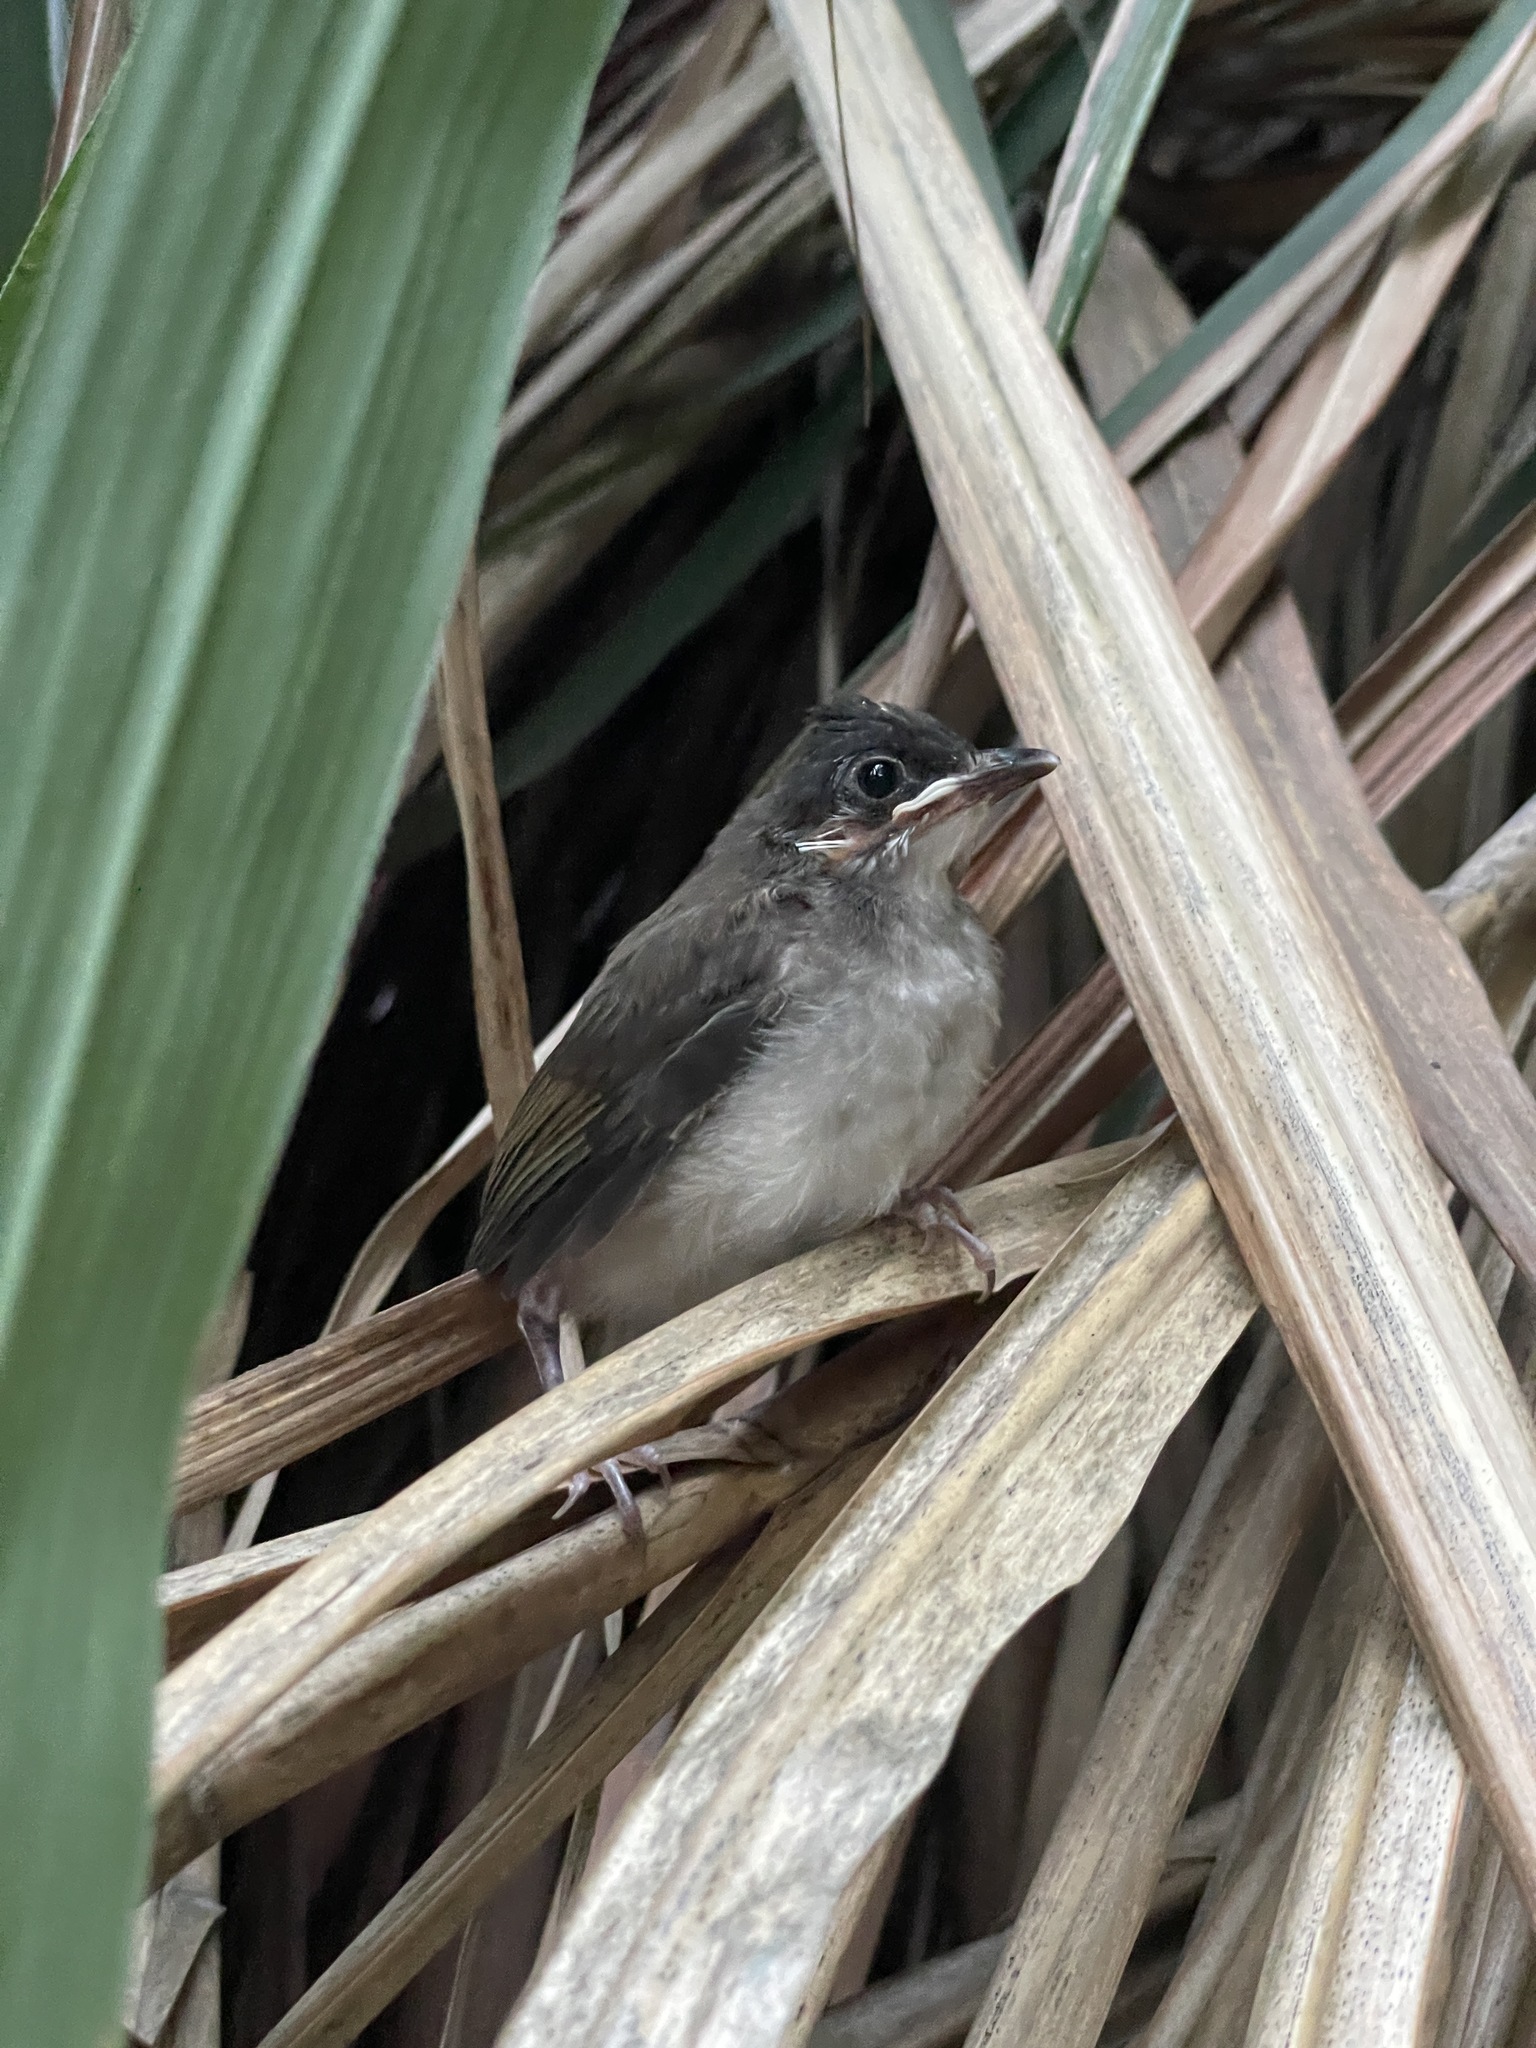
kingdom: Animalia
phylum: Chordata
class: Aves
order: Passeriformes
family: Pycnonotidae
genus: Pycnonotus
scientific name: Pycnonotus jocosus
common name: Red-whiskered bulbul
